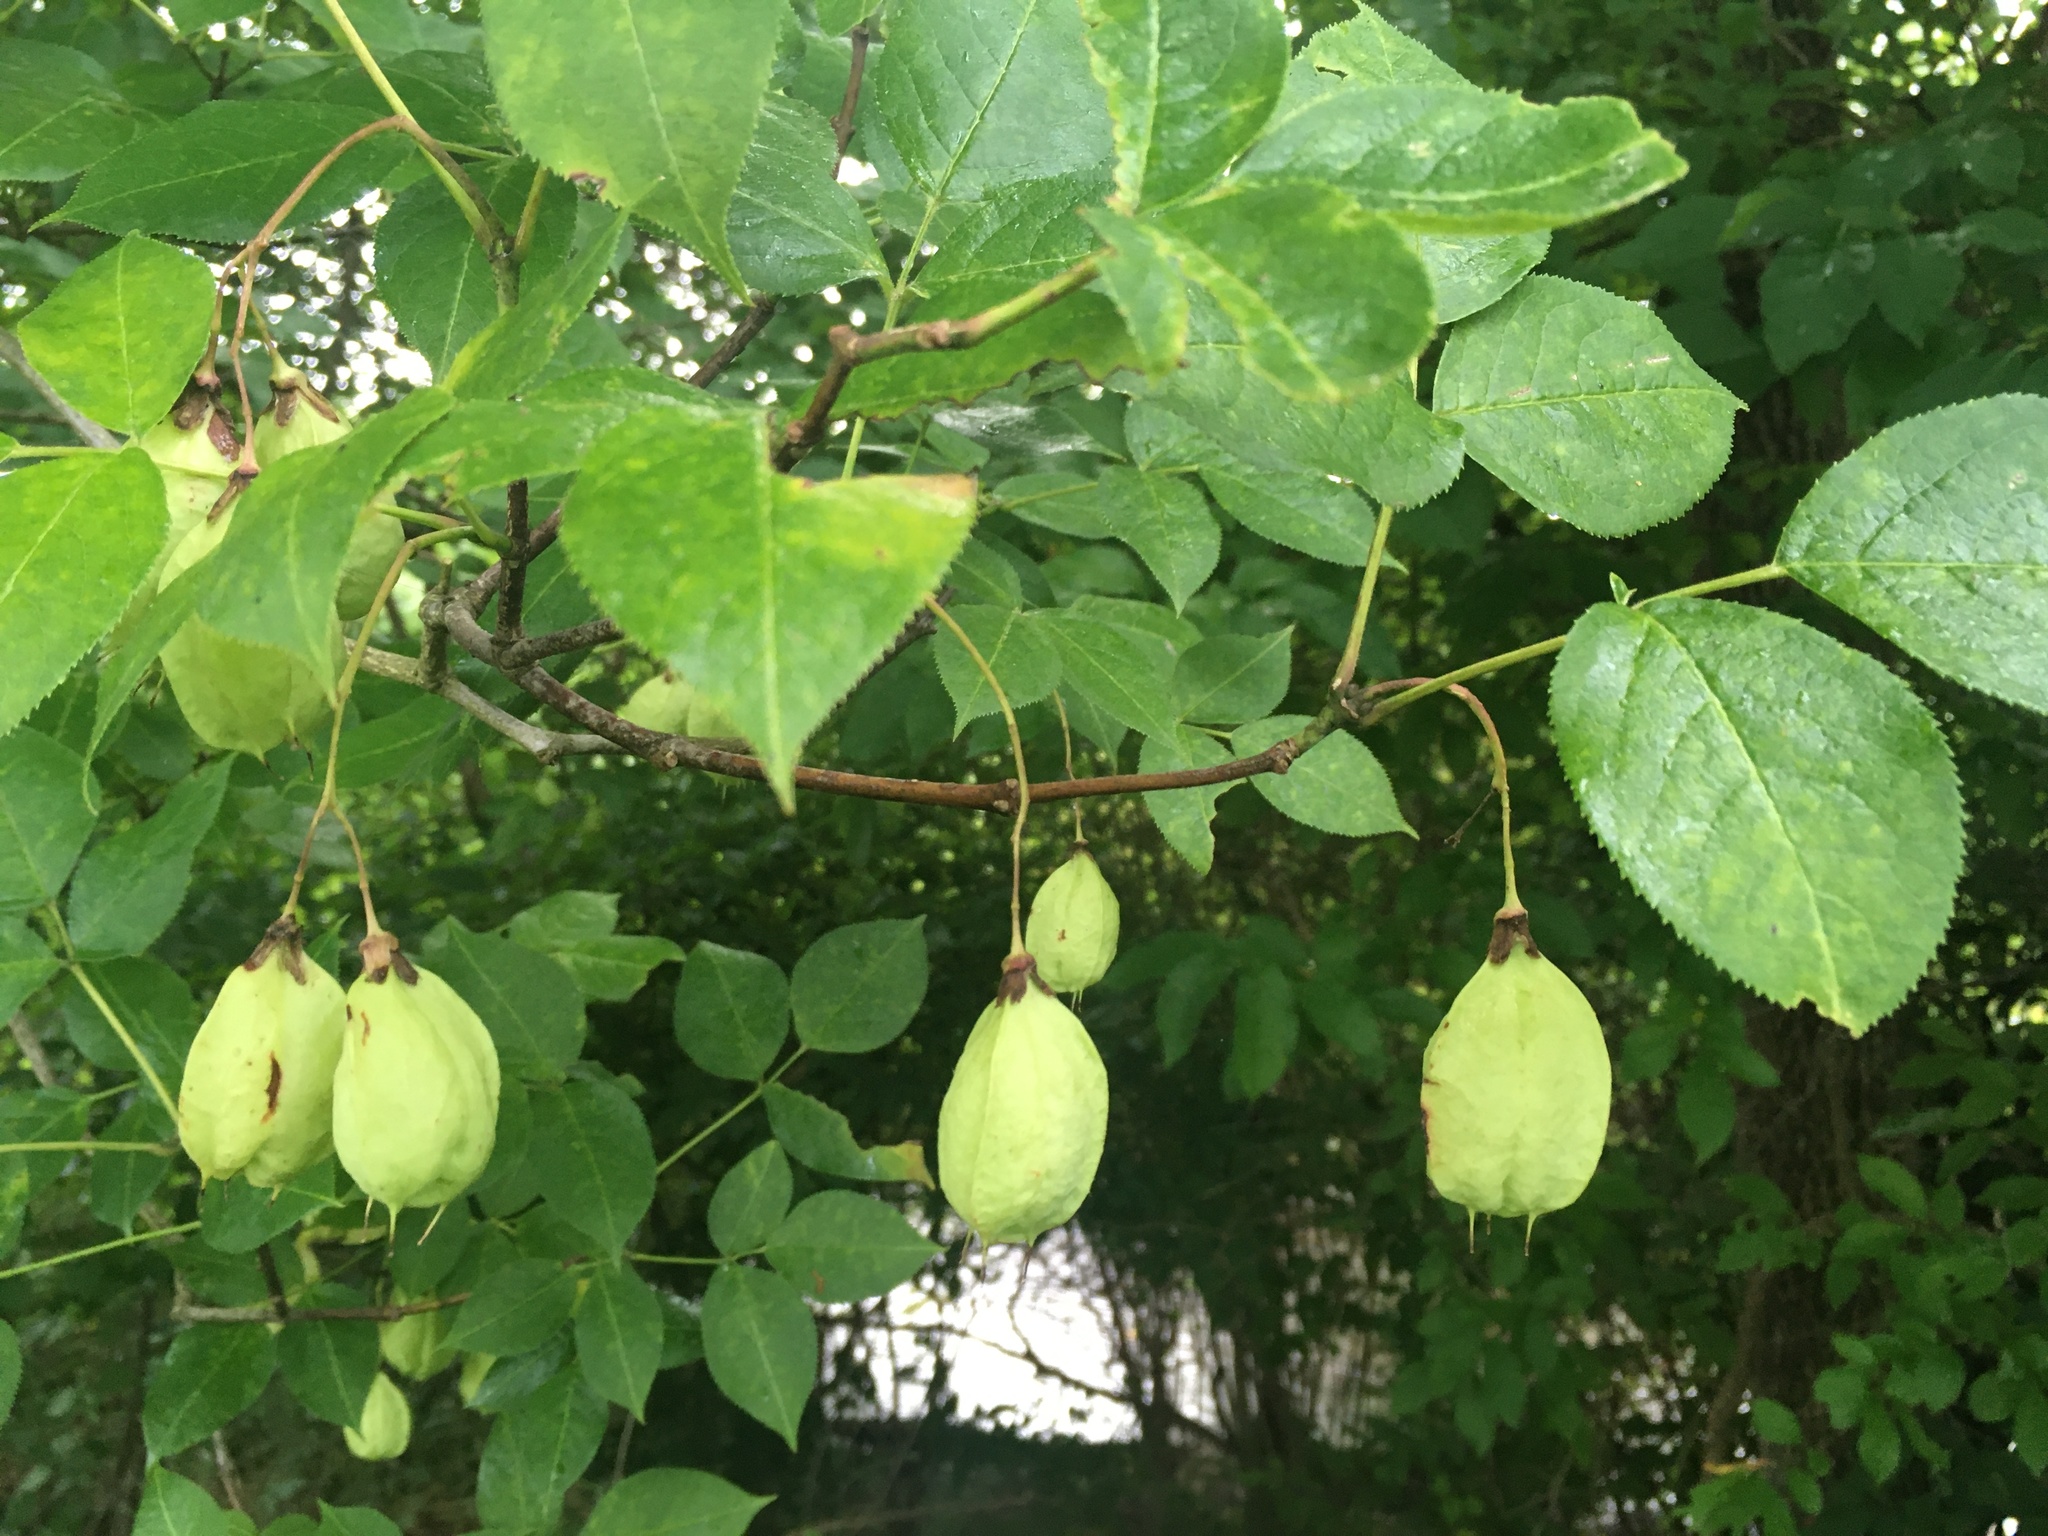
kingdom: Plantae
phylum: Tracheophyta
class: Magnoliopsida
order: Crossosomatales
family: Staphyleaceae
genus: Staphylea
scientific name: Staphylea trifolia
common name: American bladdernut
